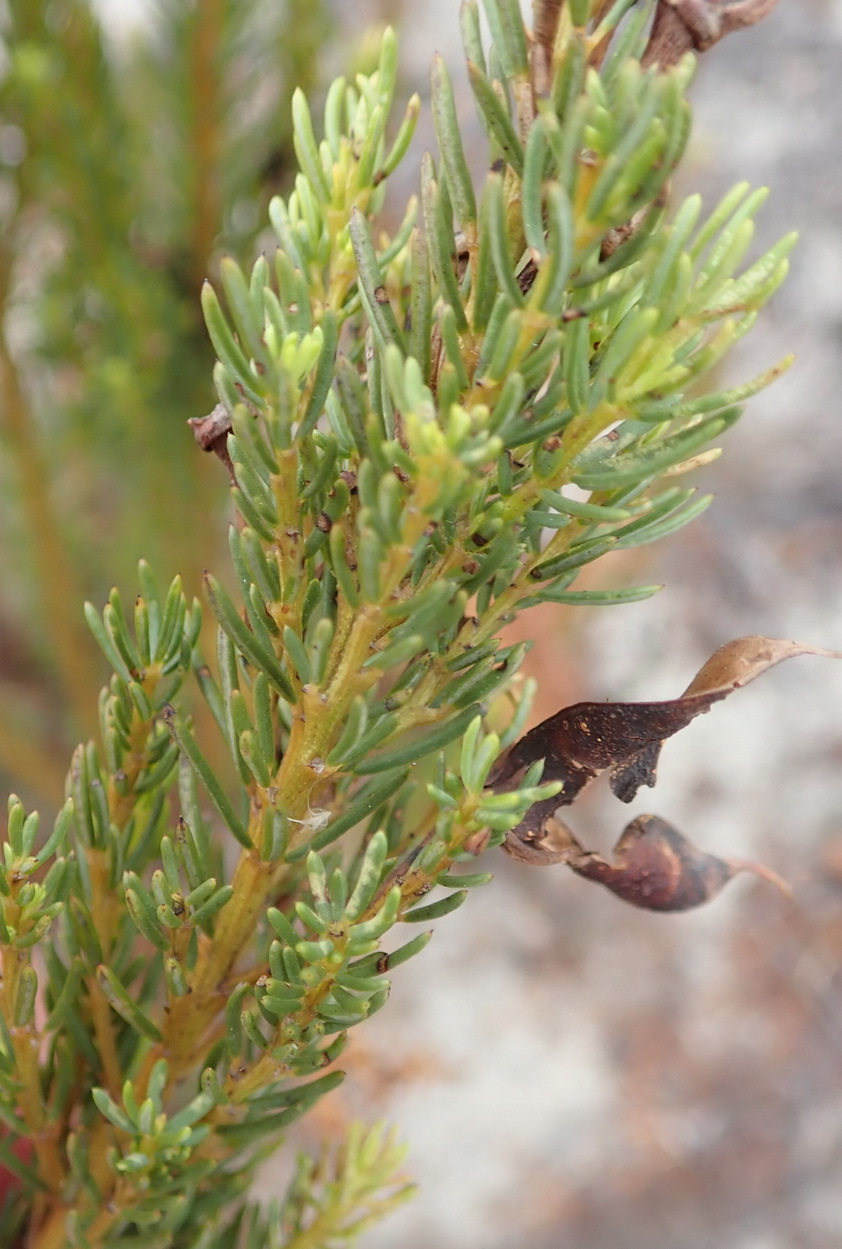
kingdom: Plantae
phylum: Tracheophyta
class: Magnoliopsida
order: Fabales
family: Fabaceae
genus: Cyclopia
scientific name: Cyclopia genistoides
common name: Honeybush tea
